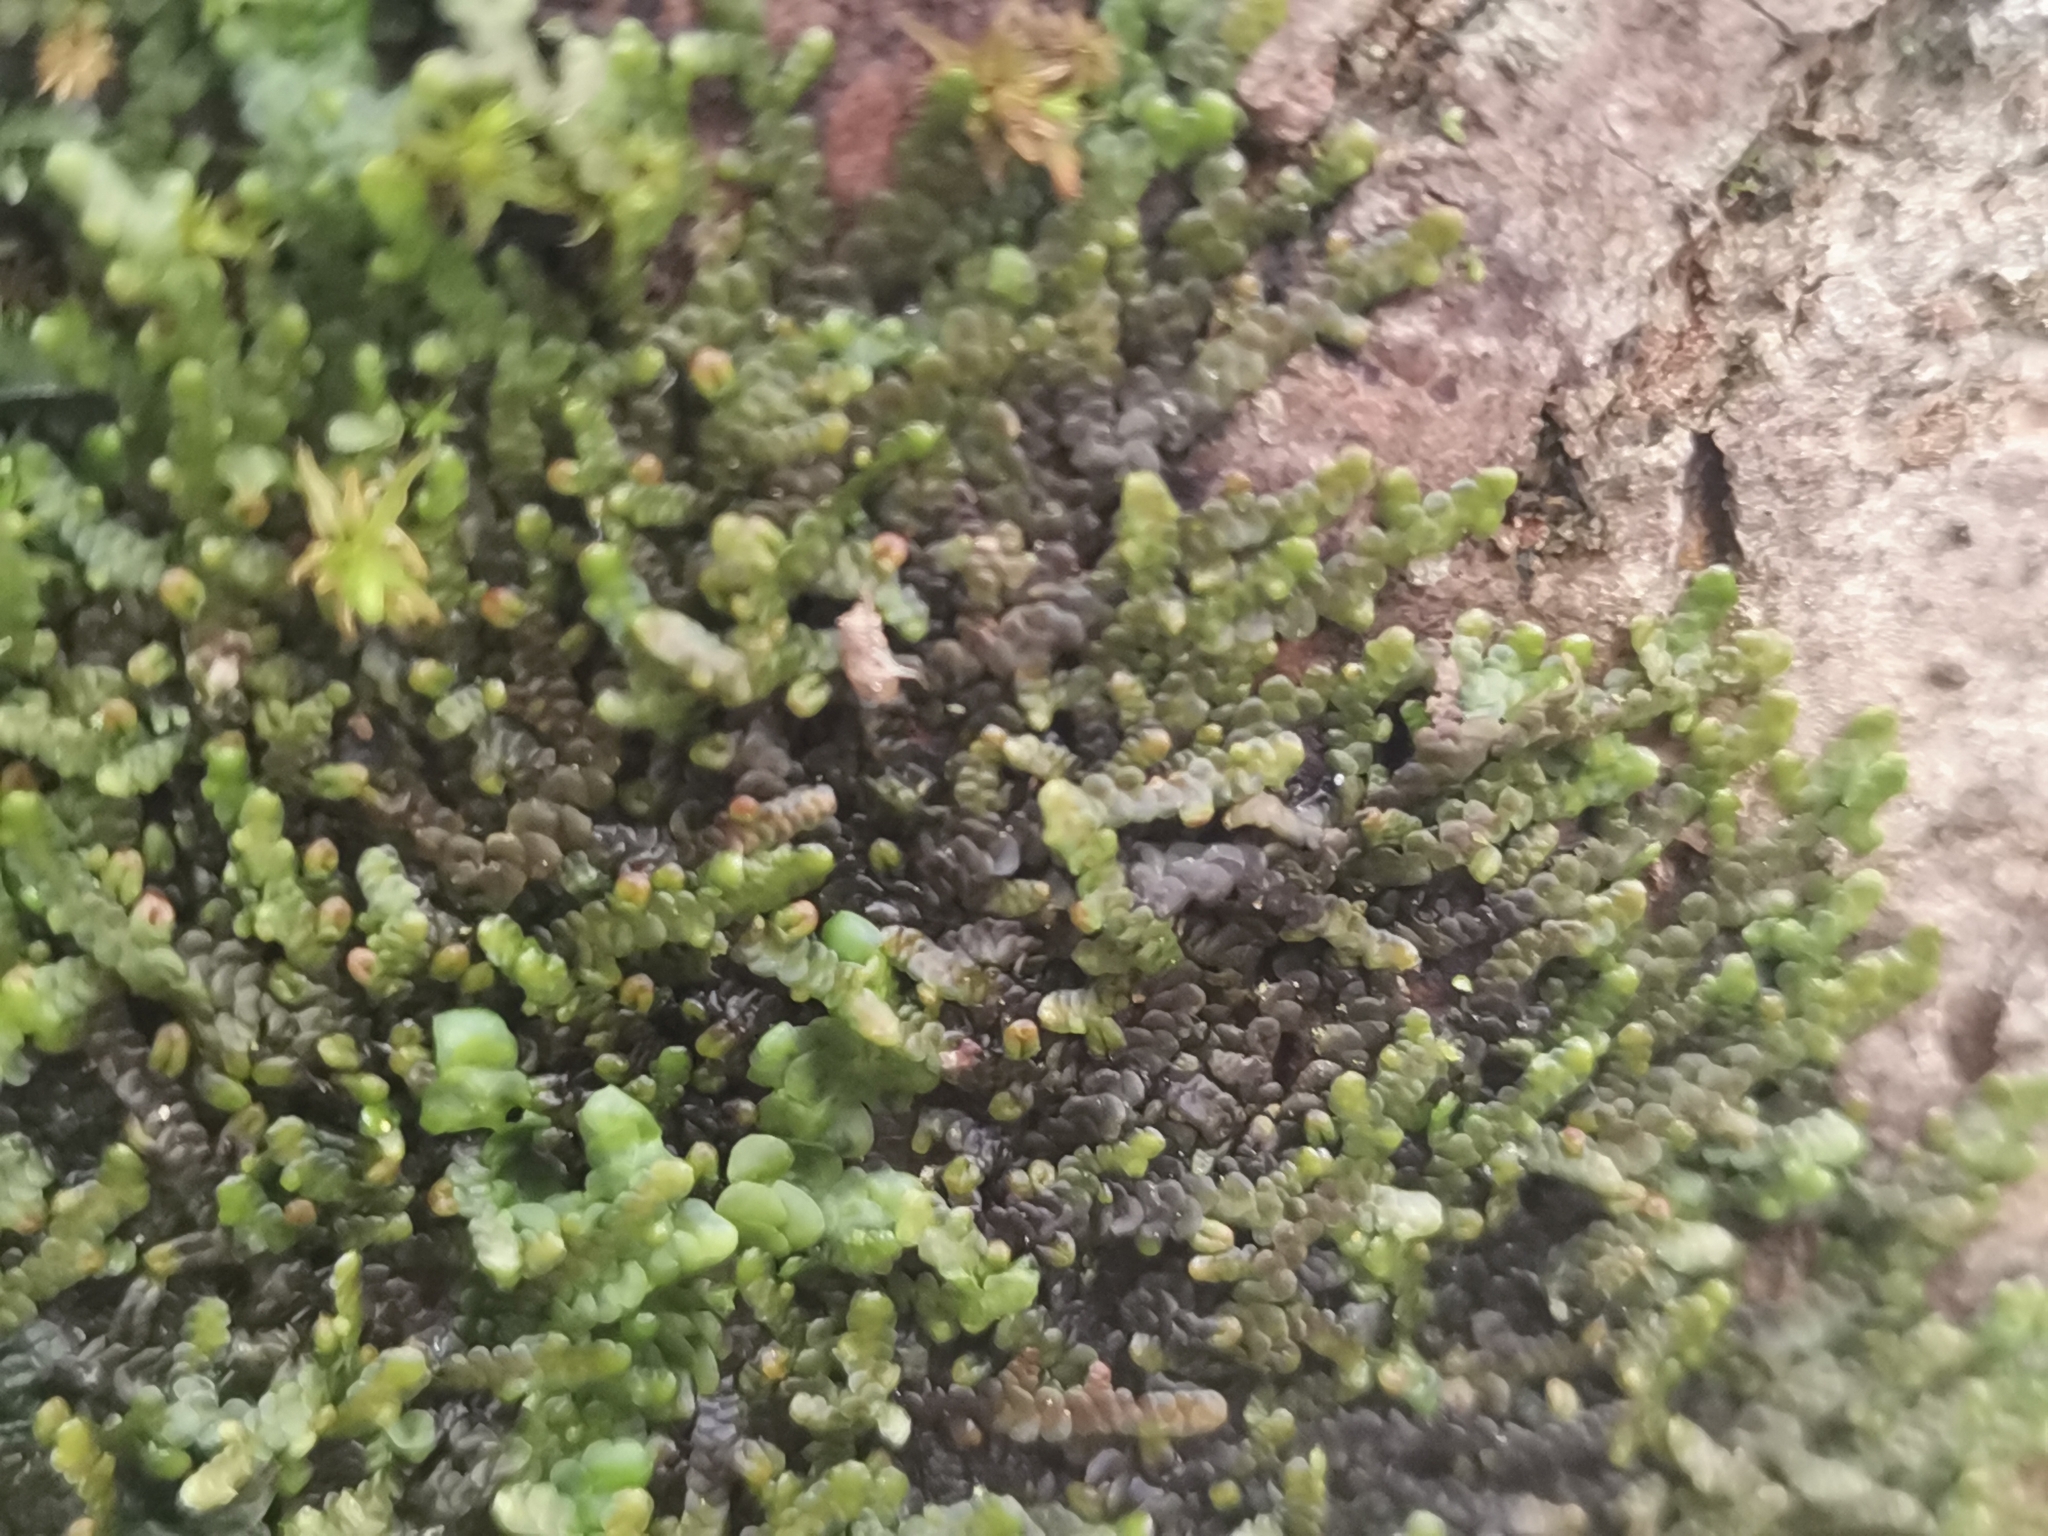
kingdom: Plantae
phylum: Marchantiophyta
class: Jungermanniopsida
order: Porellales
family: Frullaniaceae
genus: Frullania
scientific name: Frullania dilatata
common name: Dilated scalewort
